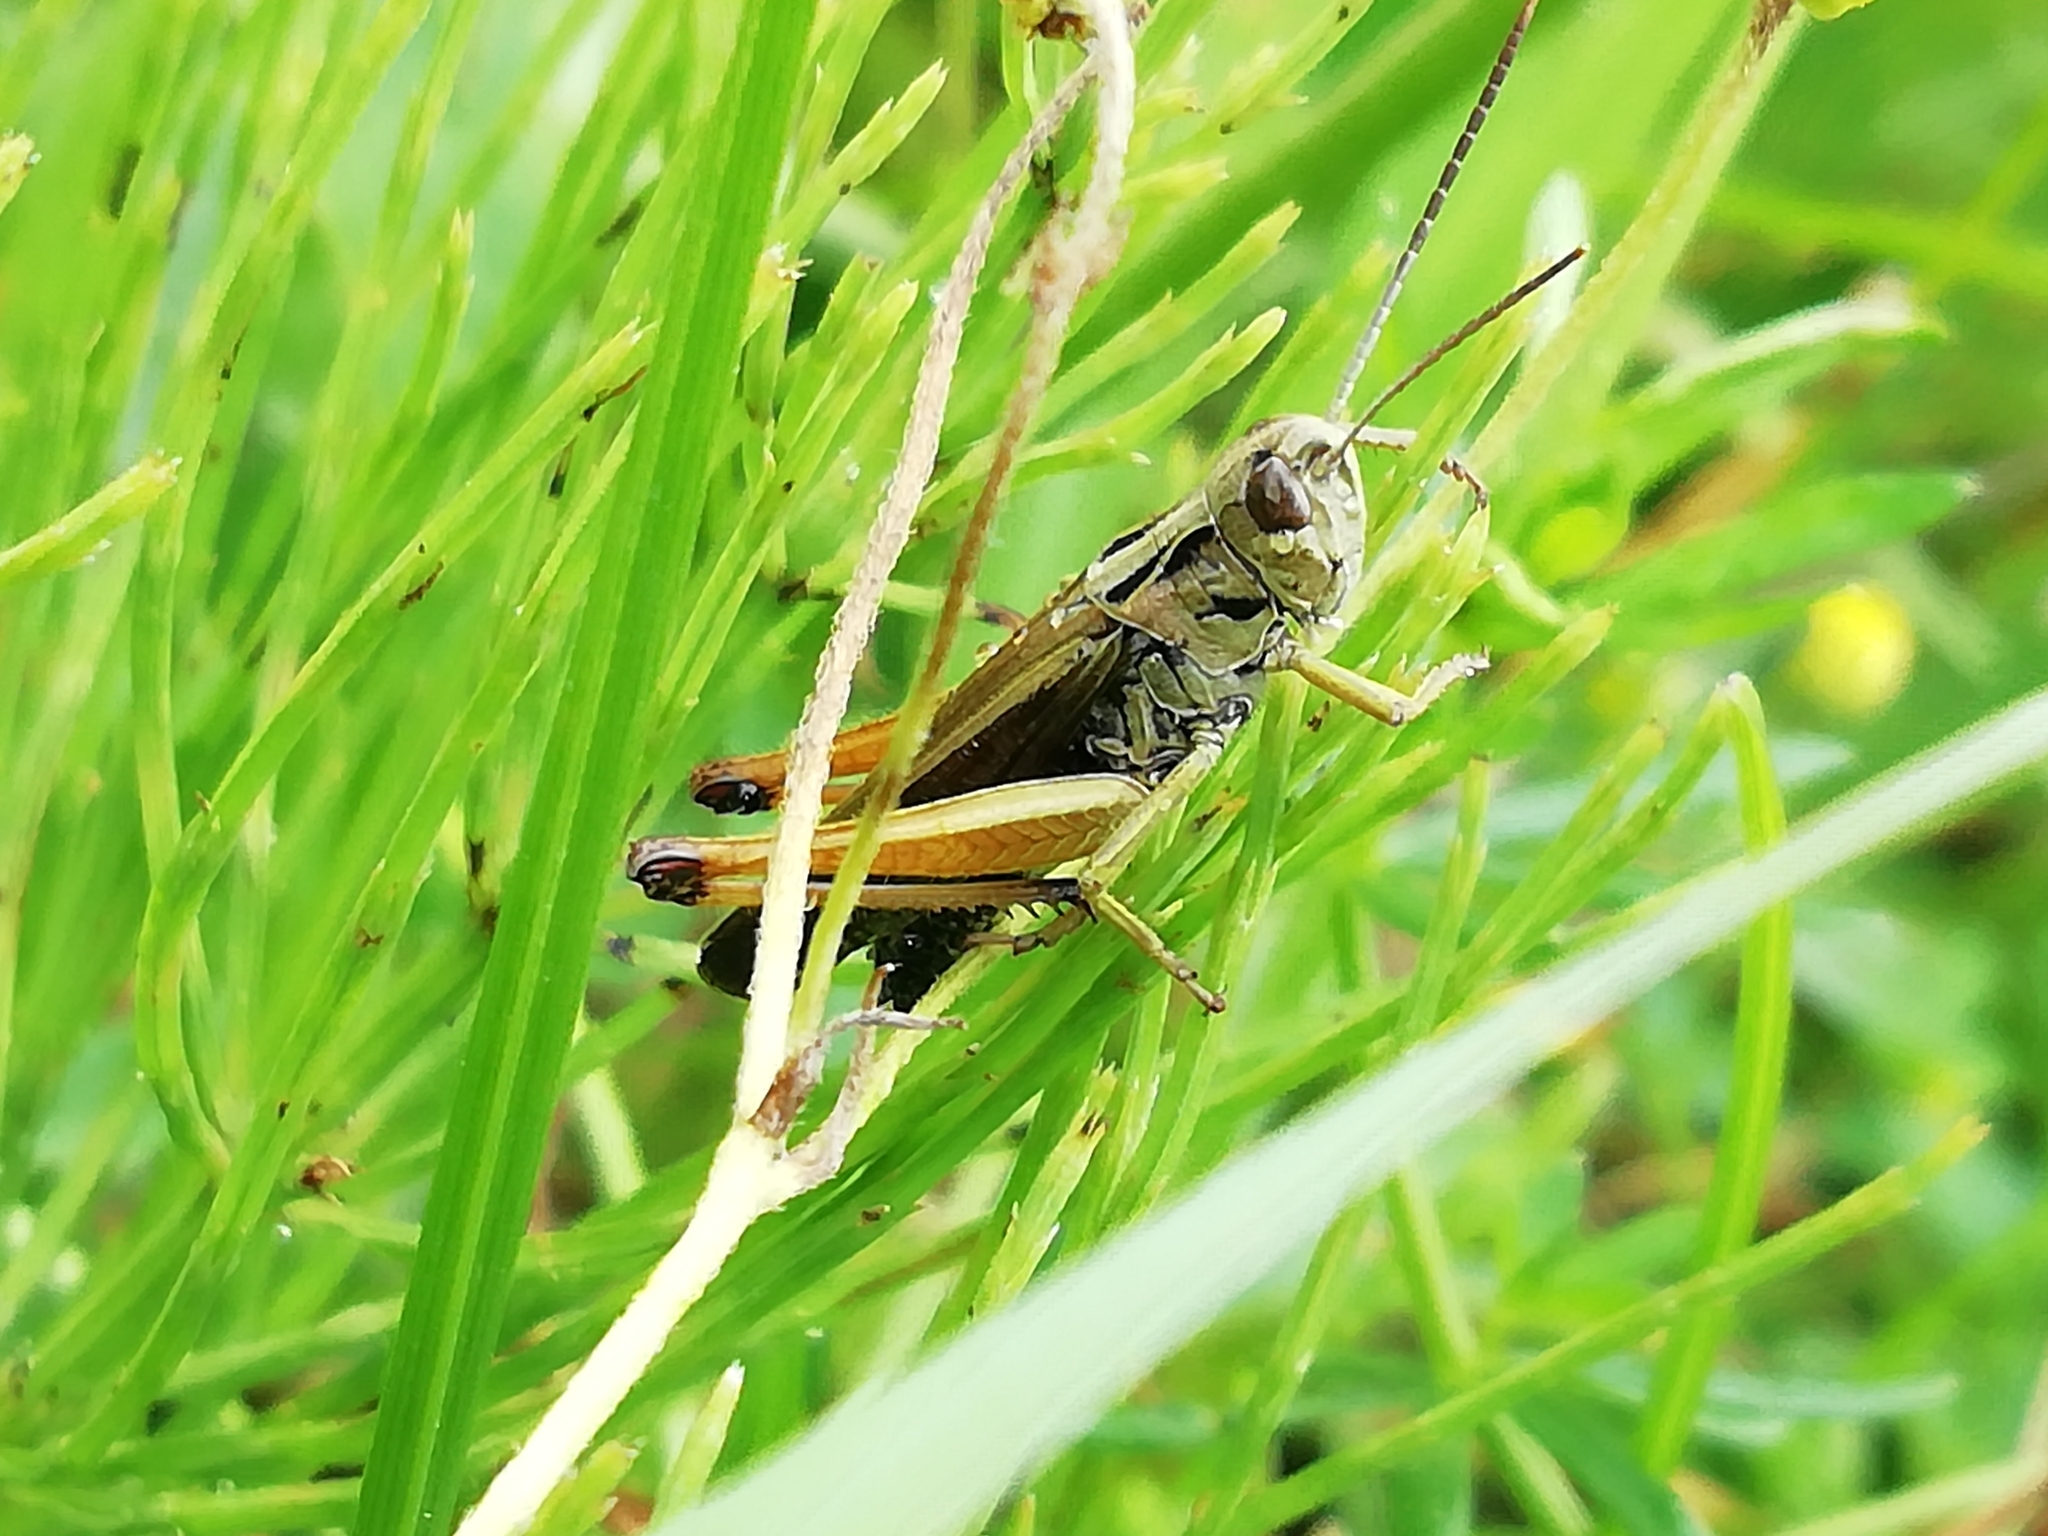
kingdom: Animalia
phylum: Arthropoda
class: Insecta
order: Orthoptera
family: Acrididae
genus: Omocestus
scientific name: Omocestus viridulus
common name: Common green grasshopper
